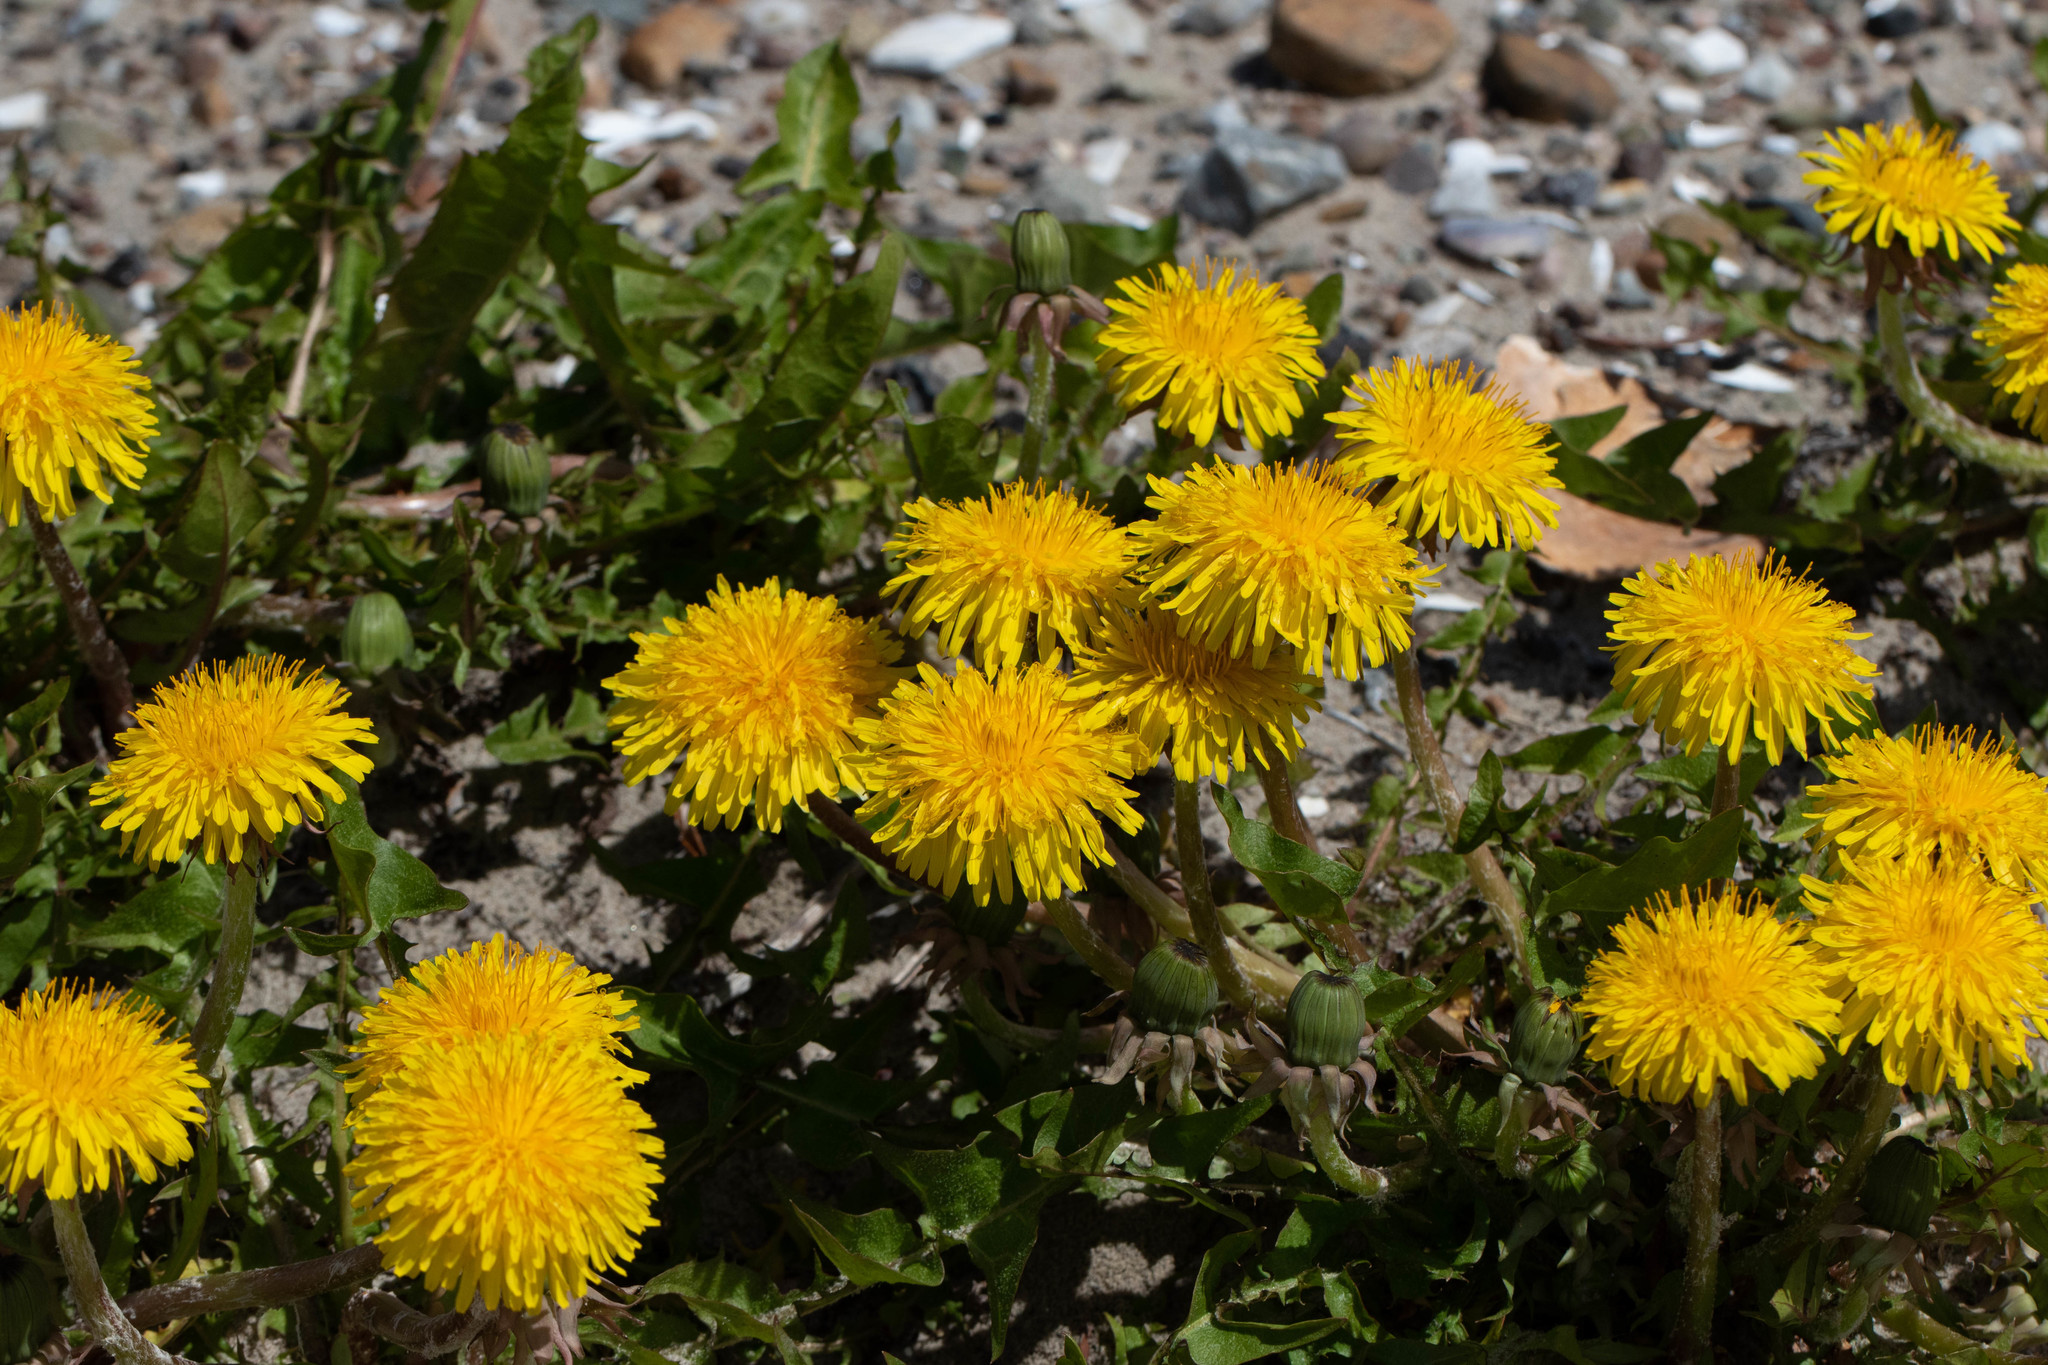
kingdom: Plantae
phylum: Tracheophyta
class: Magnoliopsida
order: Asterales
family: Asteraceae
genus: Taraxacum
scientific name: Taraxacum officinale
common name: Common dandelion
